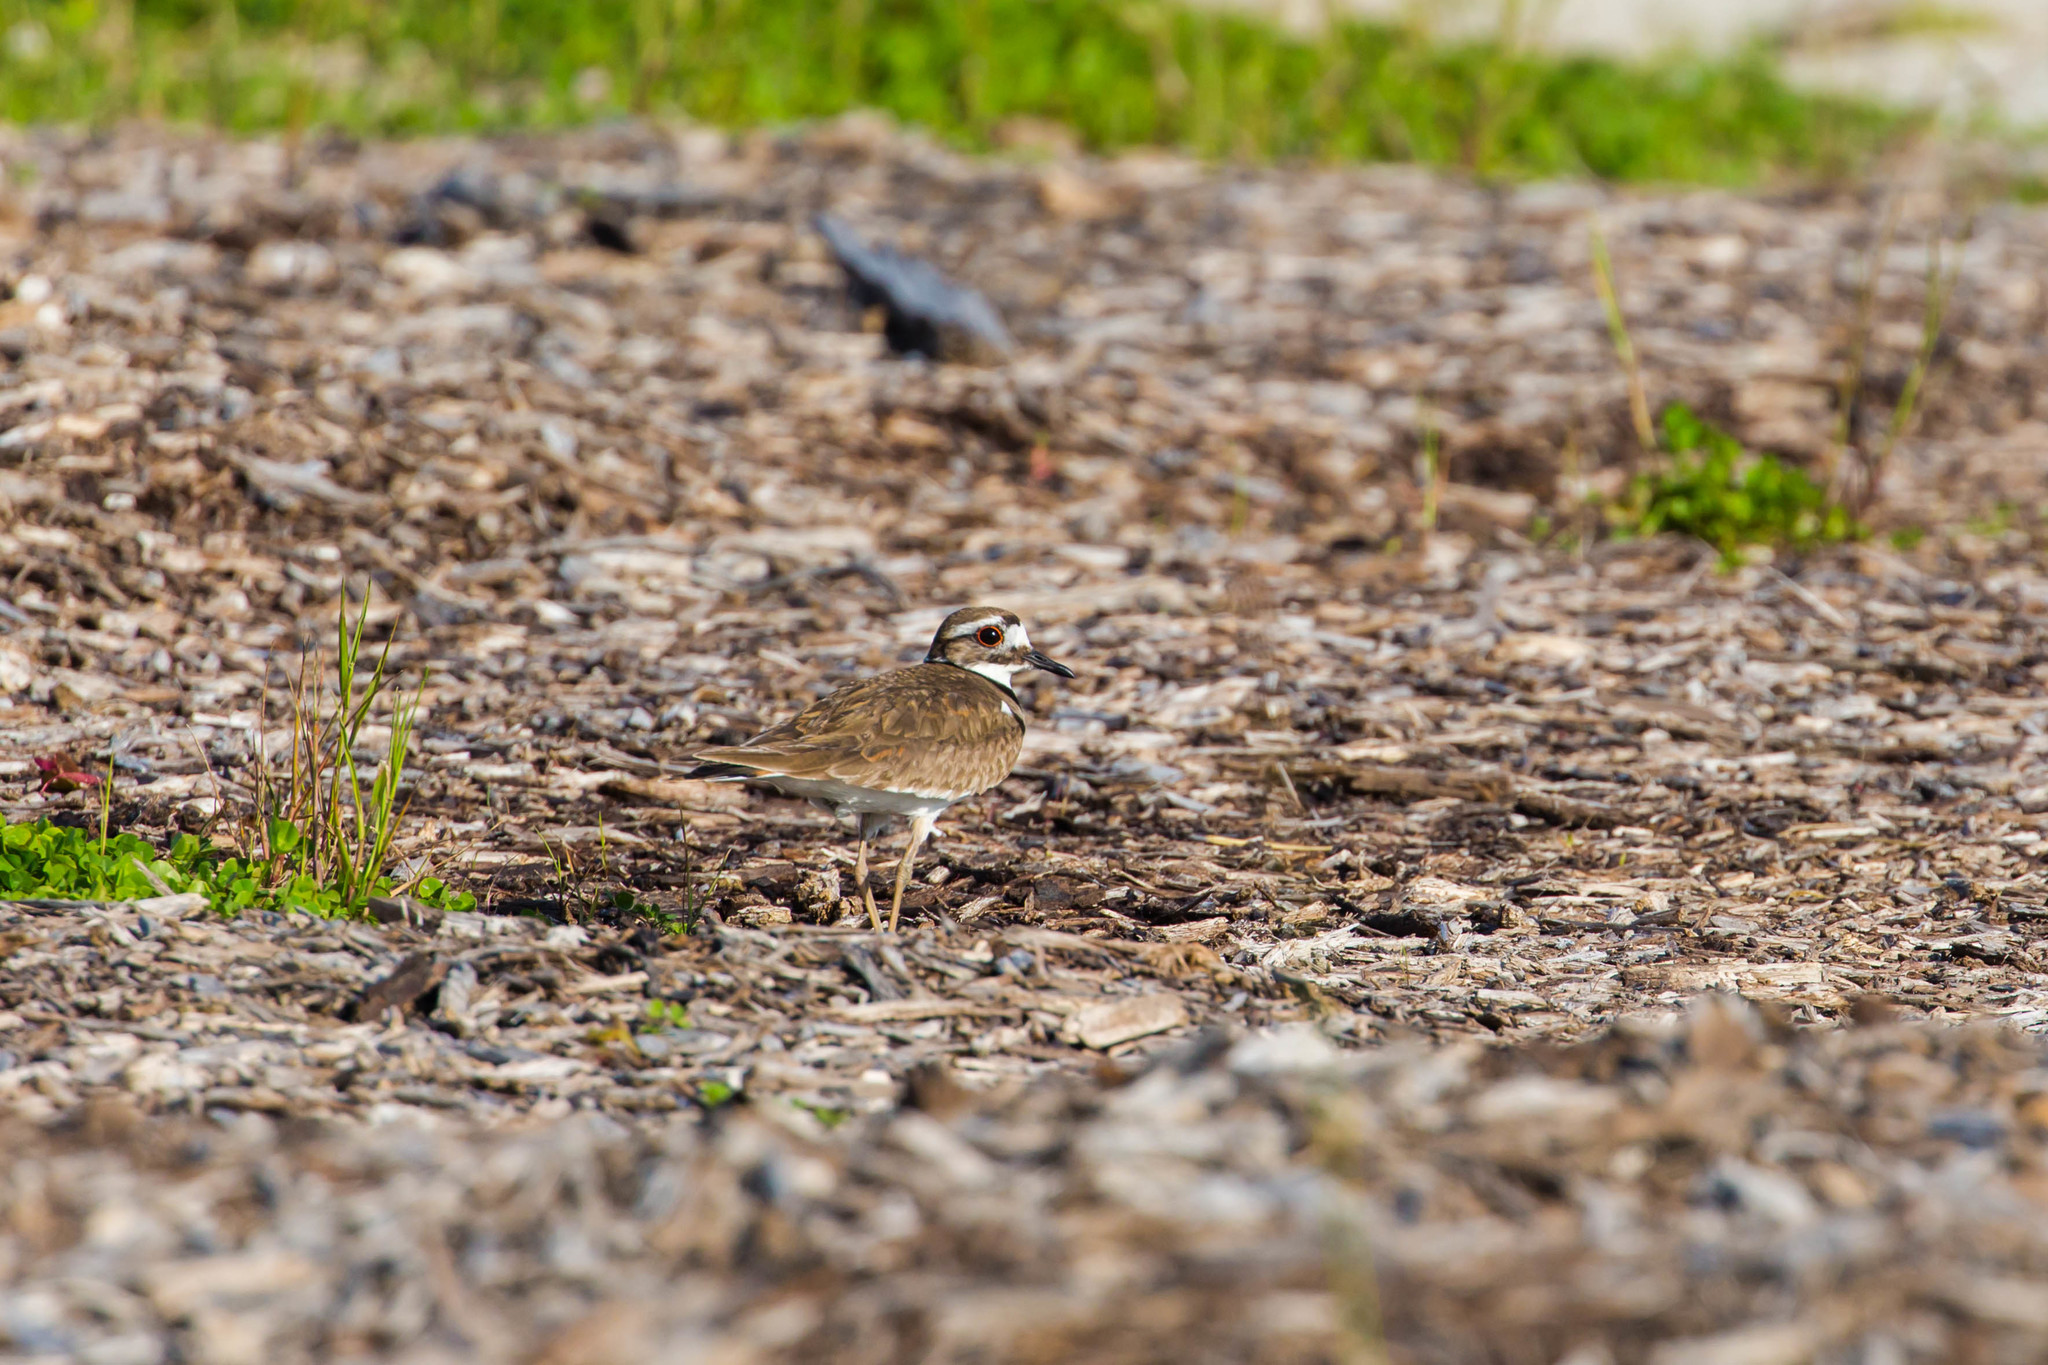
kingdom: Animalia
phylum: Chordata
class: Aves
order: Charadriiformes
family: Charadriidae
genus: Charadrius
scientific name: Charadrius vociferus
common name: Killdeer
